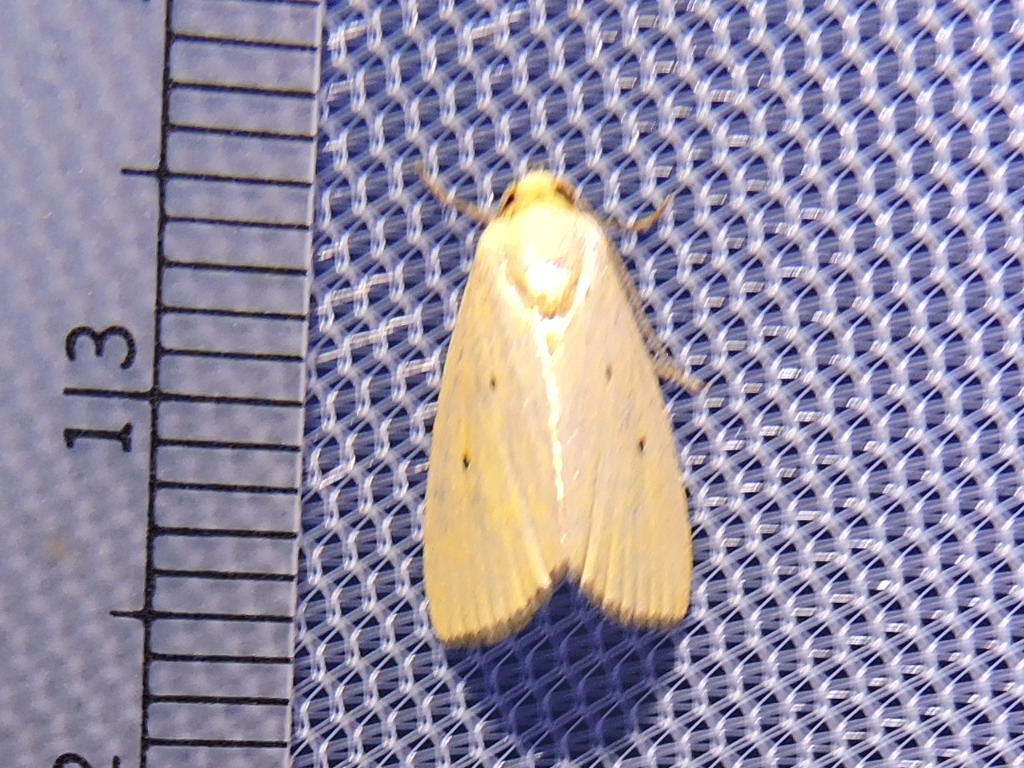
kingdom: Animalia
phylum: Arthropoda
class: Insecta
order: Lepidoptera
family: Noctuidae
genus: Marimatha
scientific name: Marimatha nigrofimbria
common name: Black-bordered lemon moth
